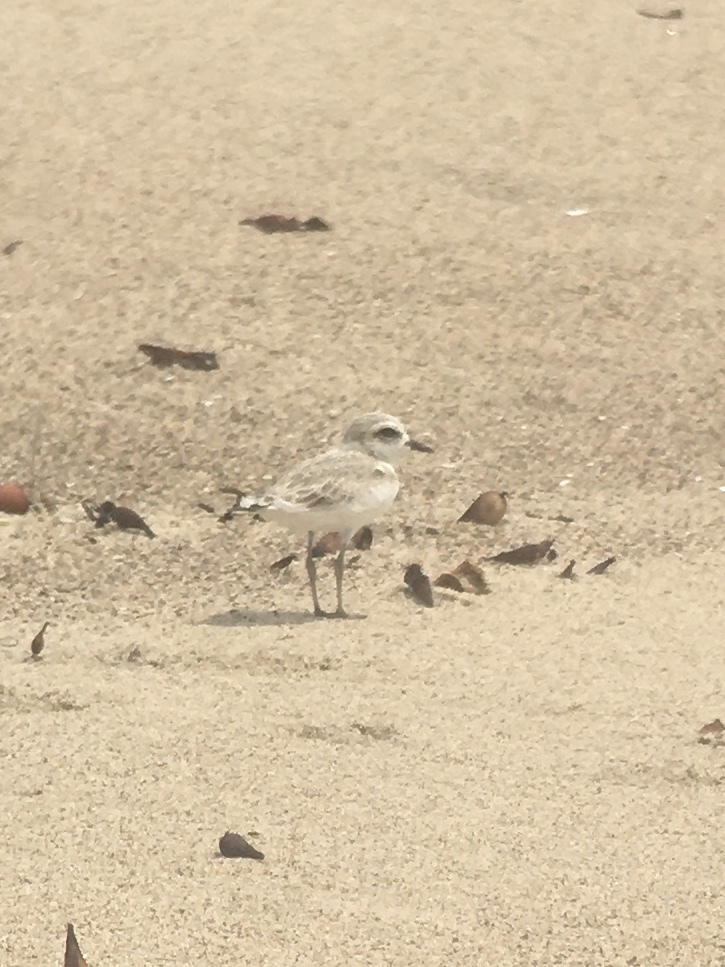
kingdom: Animalia
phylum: Chordata
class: Aves
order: Charadriiformes
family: Charadriidae
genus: Anarhynchus
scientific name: Anarhynchus
